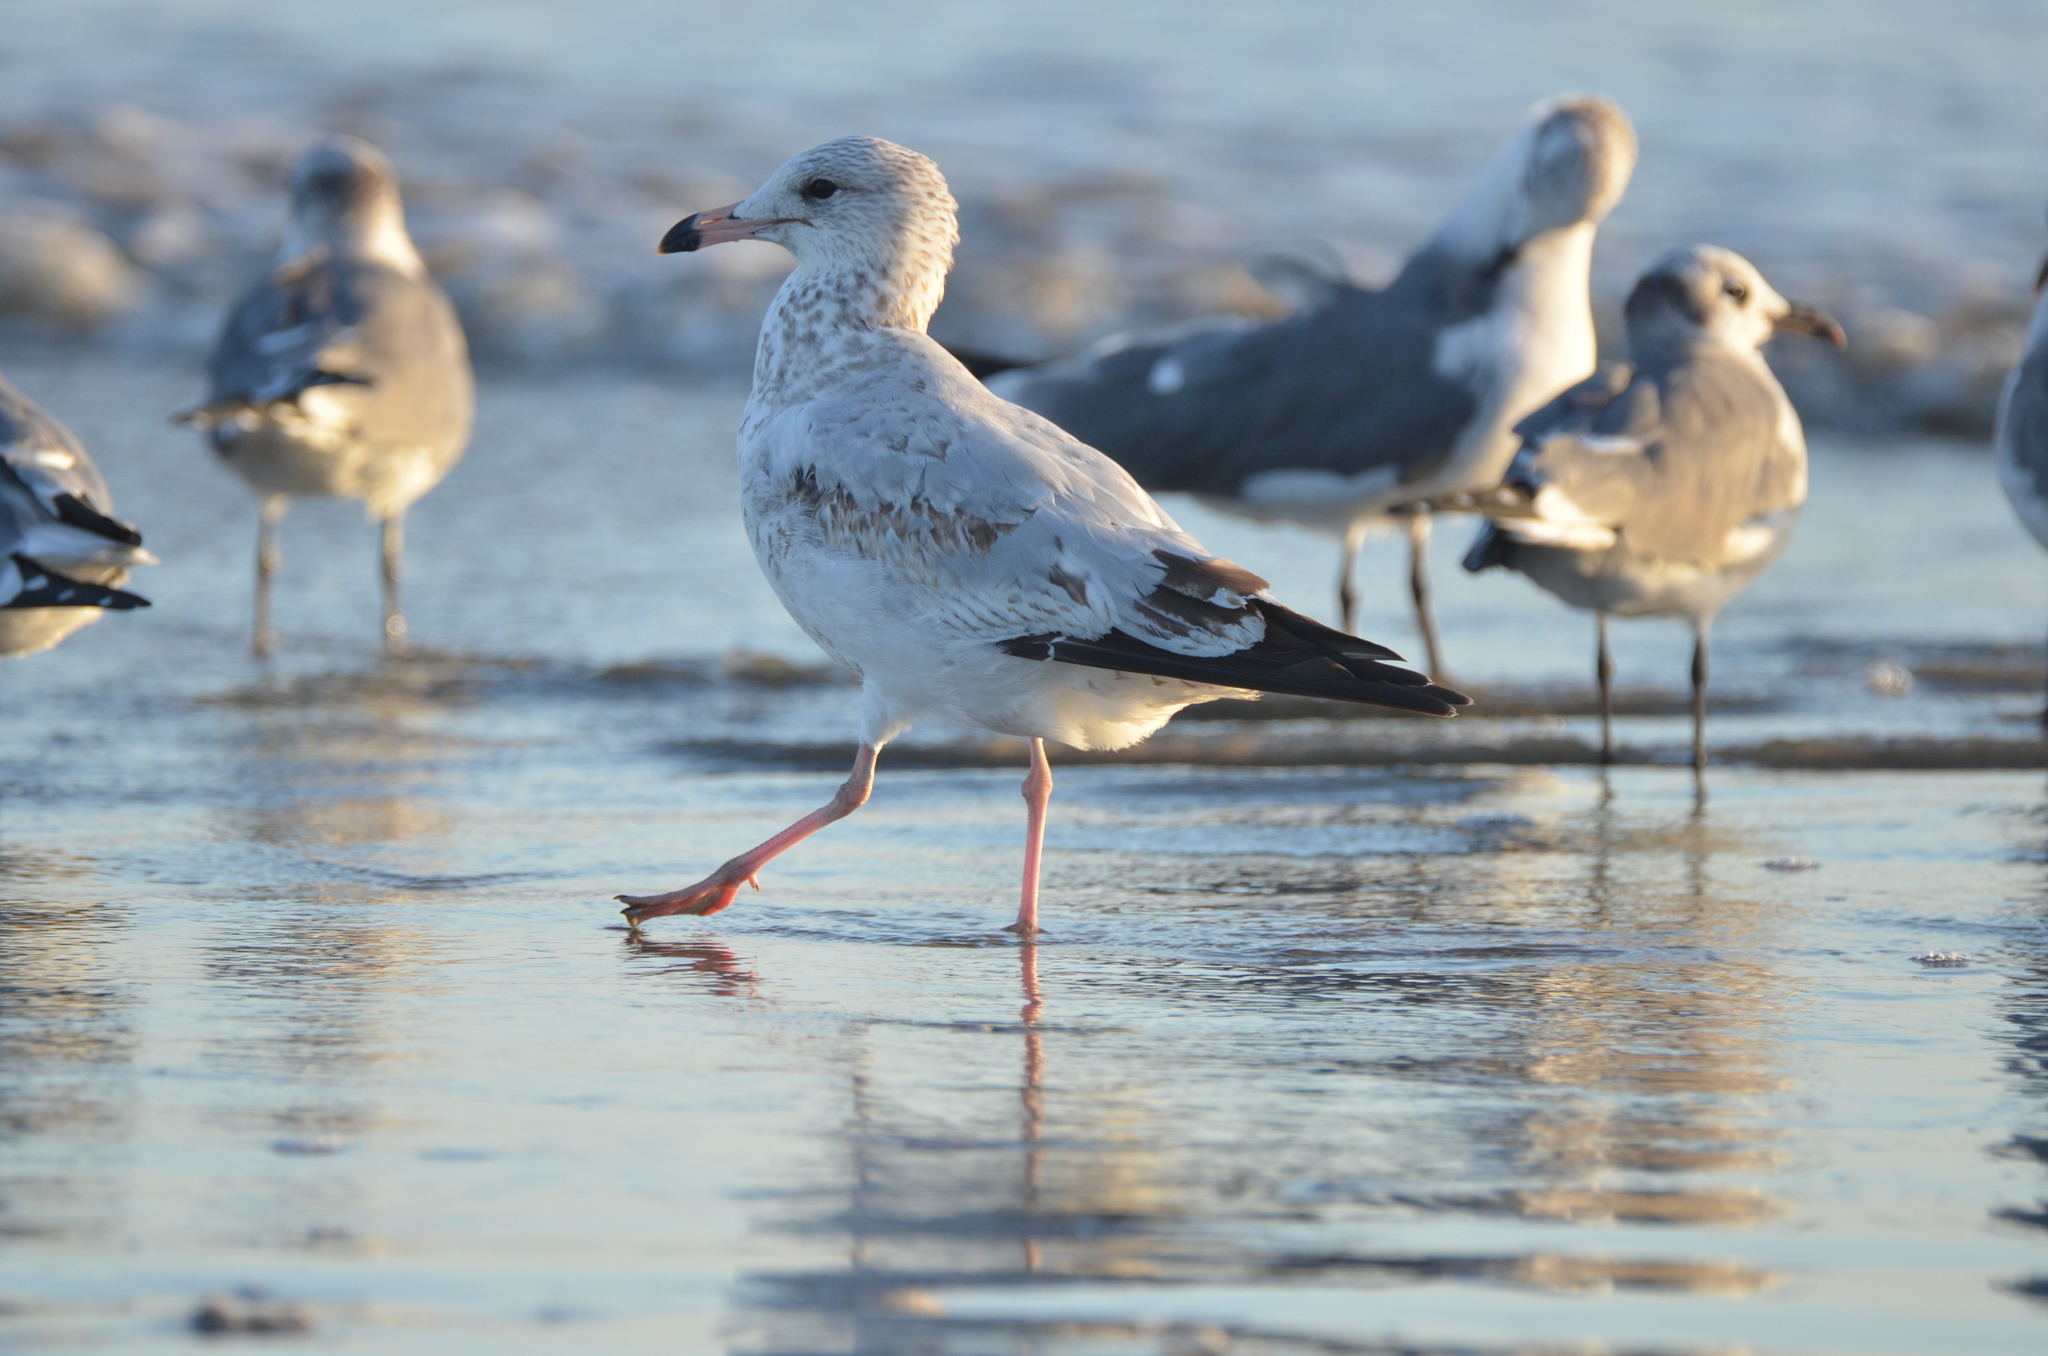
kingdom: Animalia
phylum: Chordata
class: Aves
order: Charadriiformes
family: Laridae
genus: Larus
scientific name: Larus delawarensis
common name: Ring-billed gull
